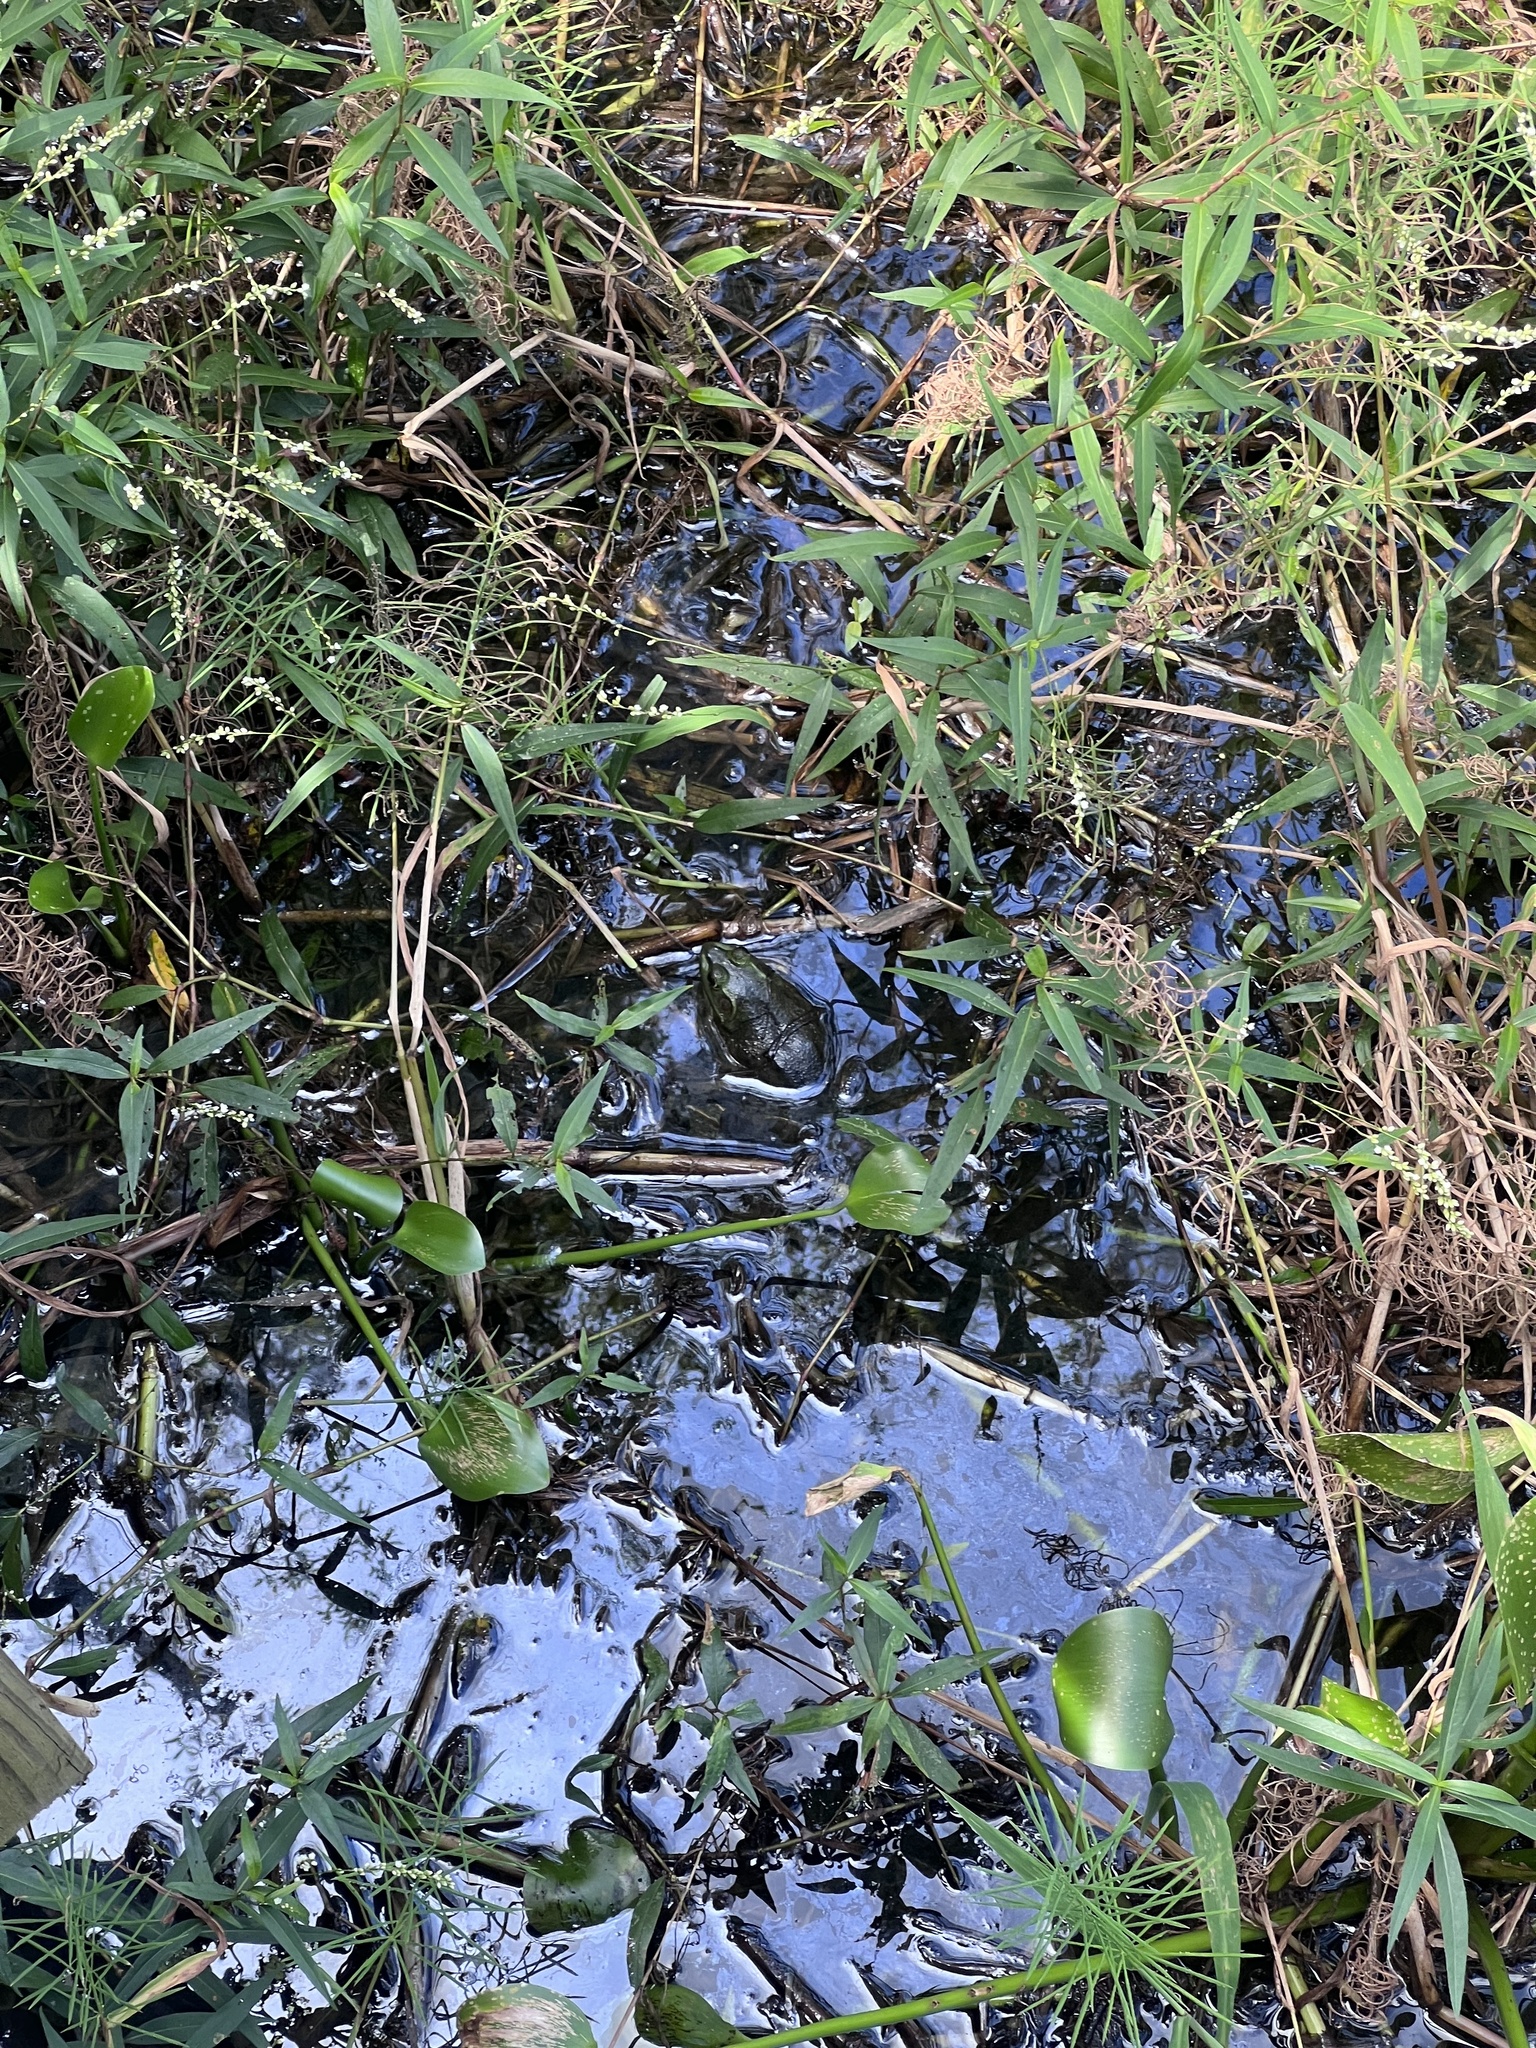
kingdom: Animalia
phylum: Chordata
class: Amphibia
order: Anura
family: Ranidae
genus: Lithobates
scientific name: Lithobates grylio
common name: Pig frog
